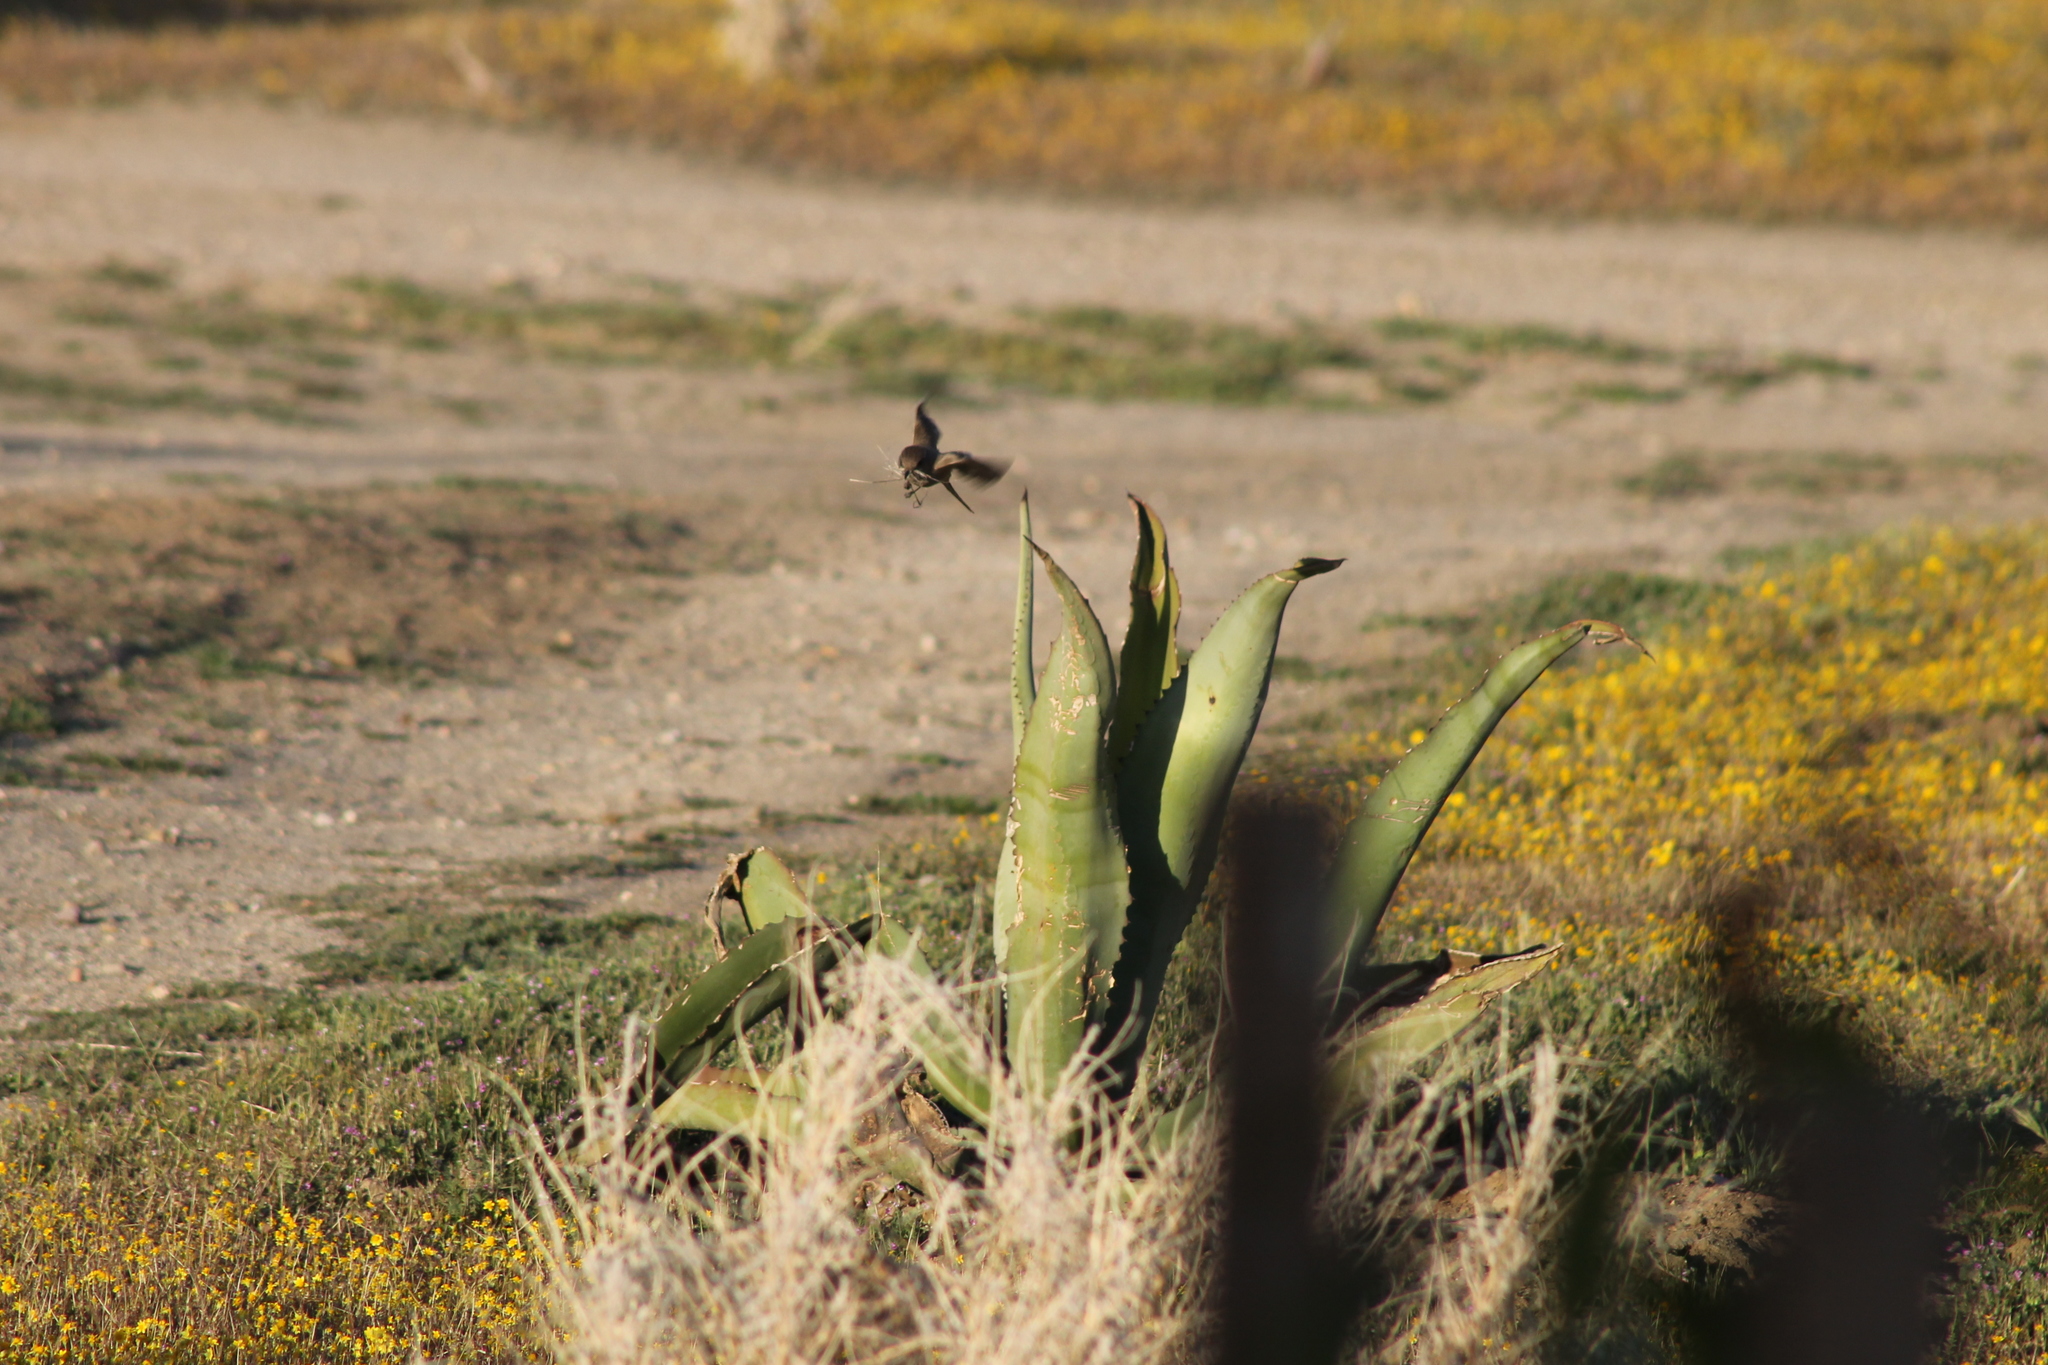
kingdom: Animalia
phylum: Chordata
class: Aves
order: Passeriformes
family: Tyrannidae
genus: Sayornis
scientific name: Sayornis saya
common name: Say's phoebe
